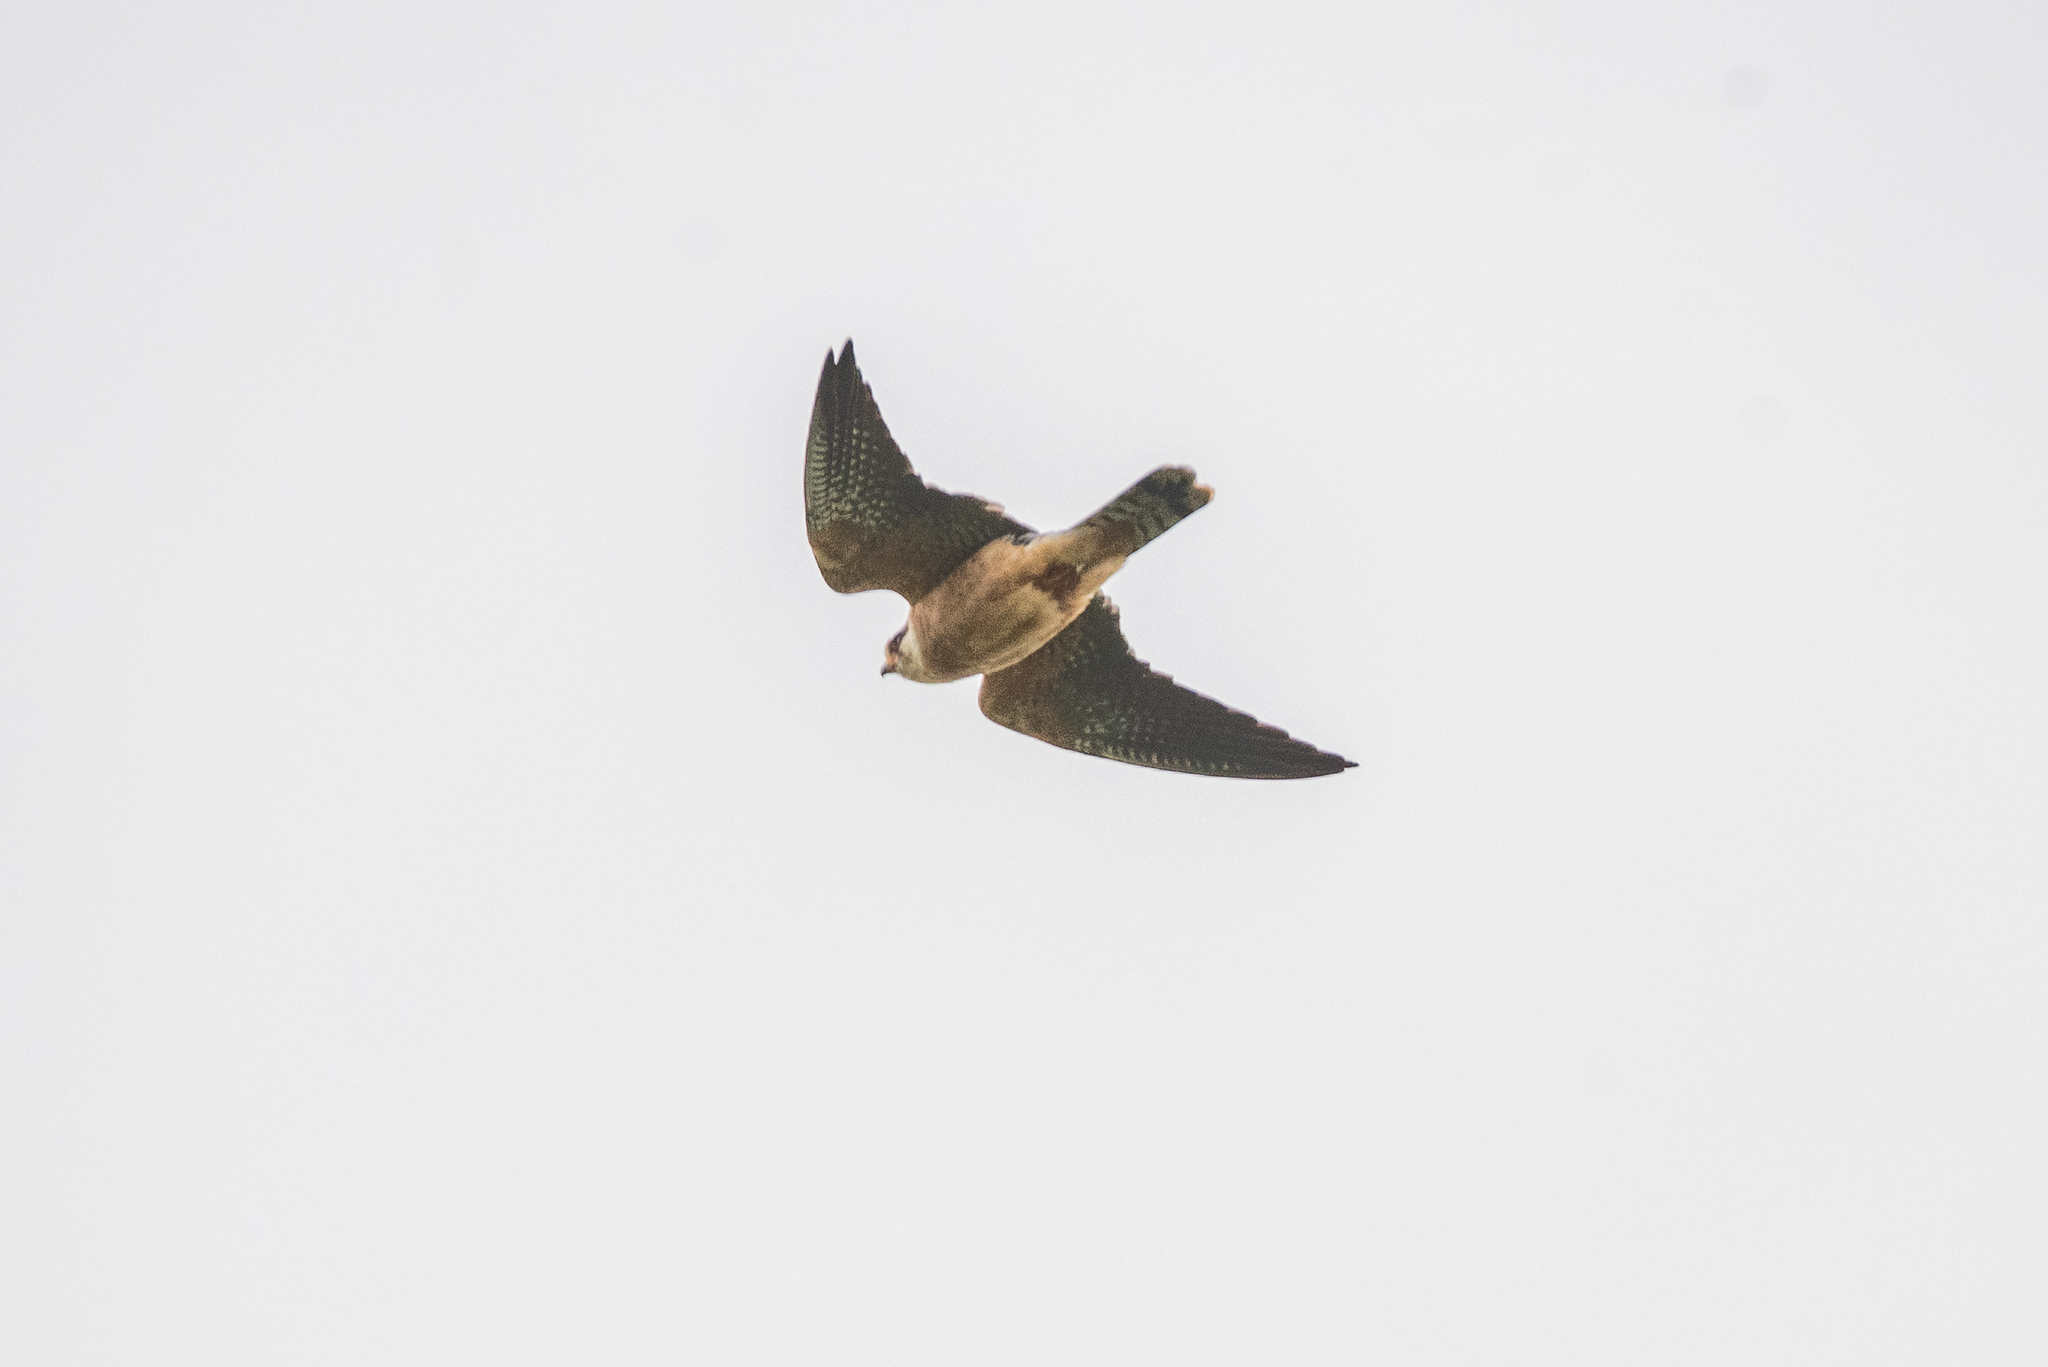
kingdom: Animalia
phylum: Chordata
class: Aves
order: Falconiformes
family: Falconidae
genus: Falco
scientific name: Falco vespertinus
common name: Red-footed falcon
